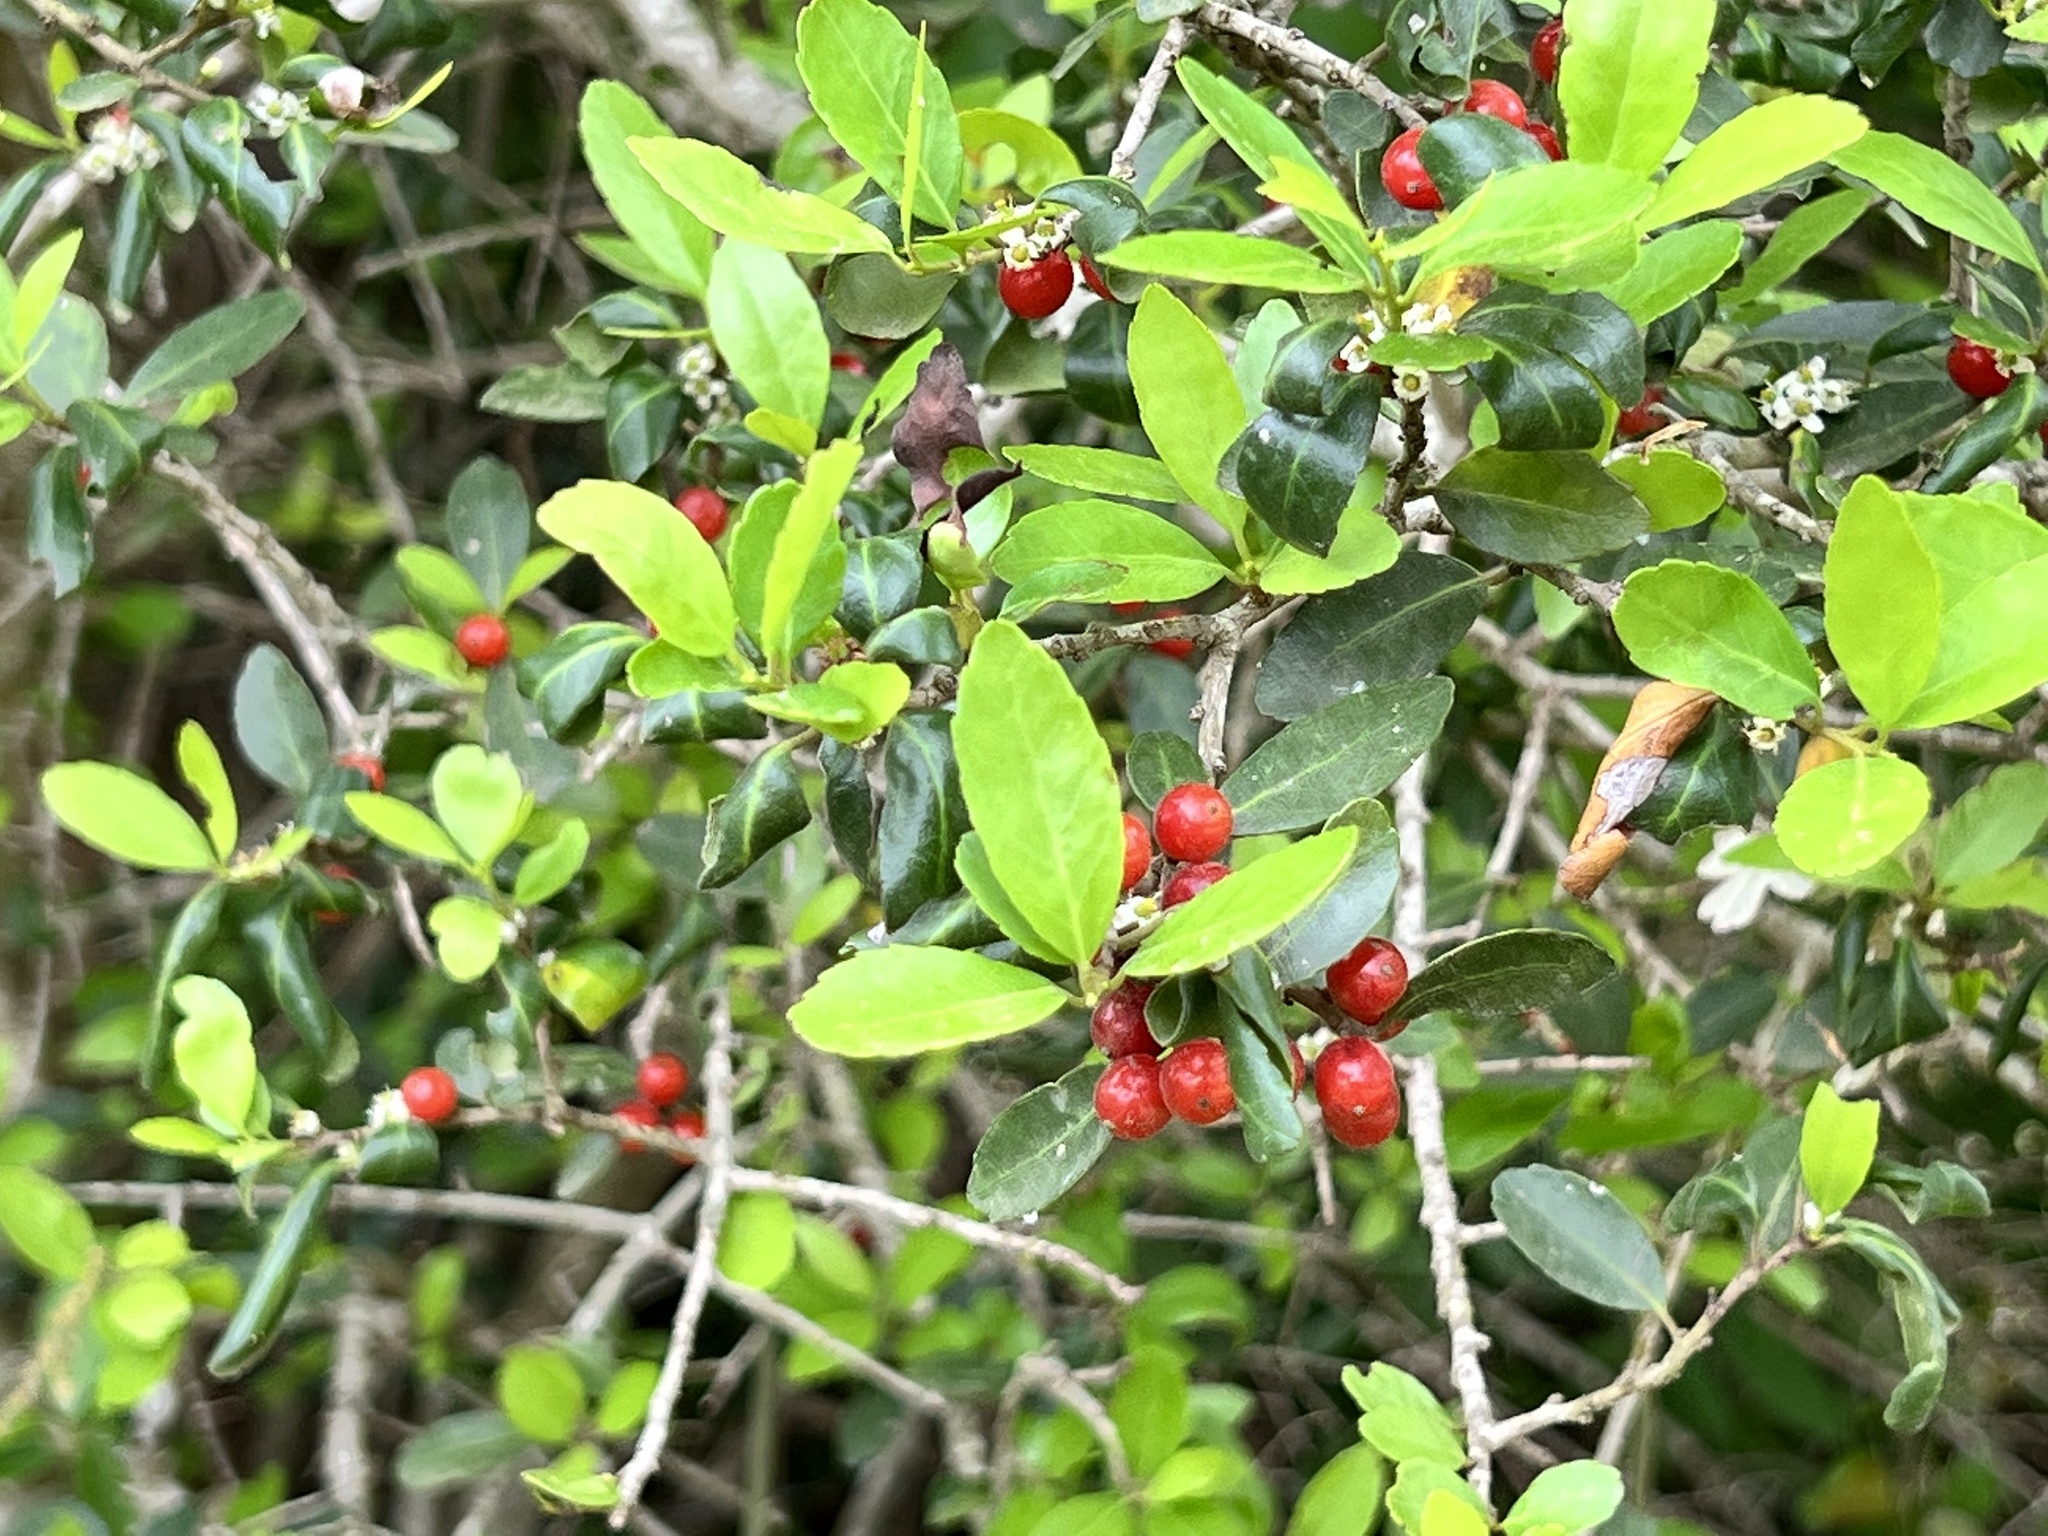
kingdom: Plantae
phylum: Tracheophyta
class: Magnoliopsida
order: Aquifoliales
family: Aquifoliaceae
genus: Ilex
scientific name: Ilex vomitoria
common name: Yaupon holly
